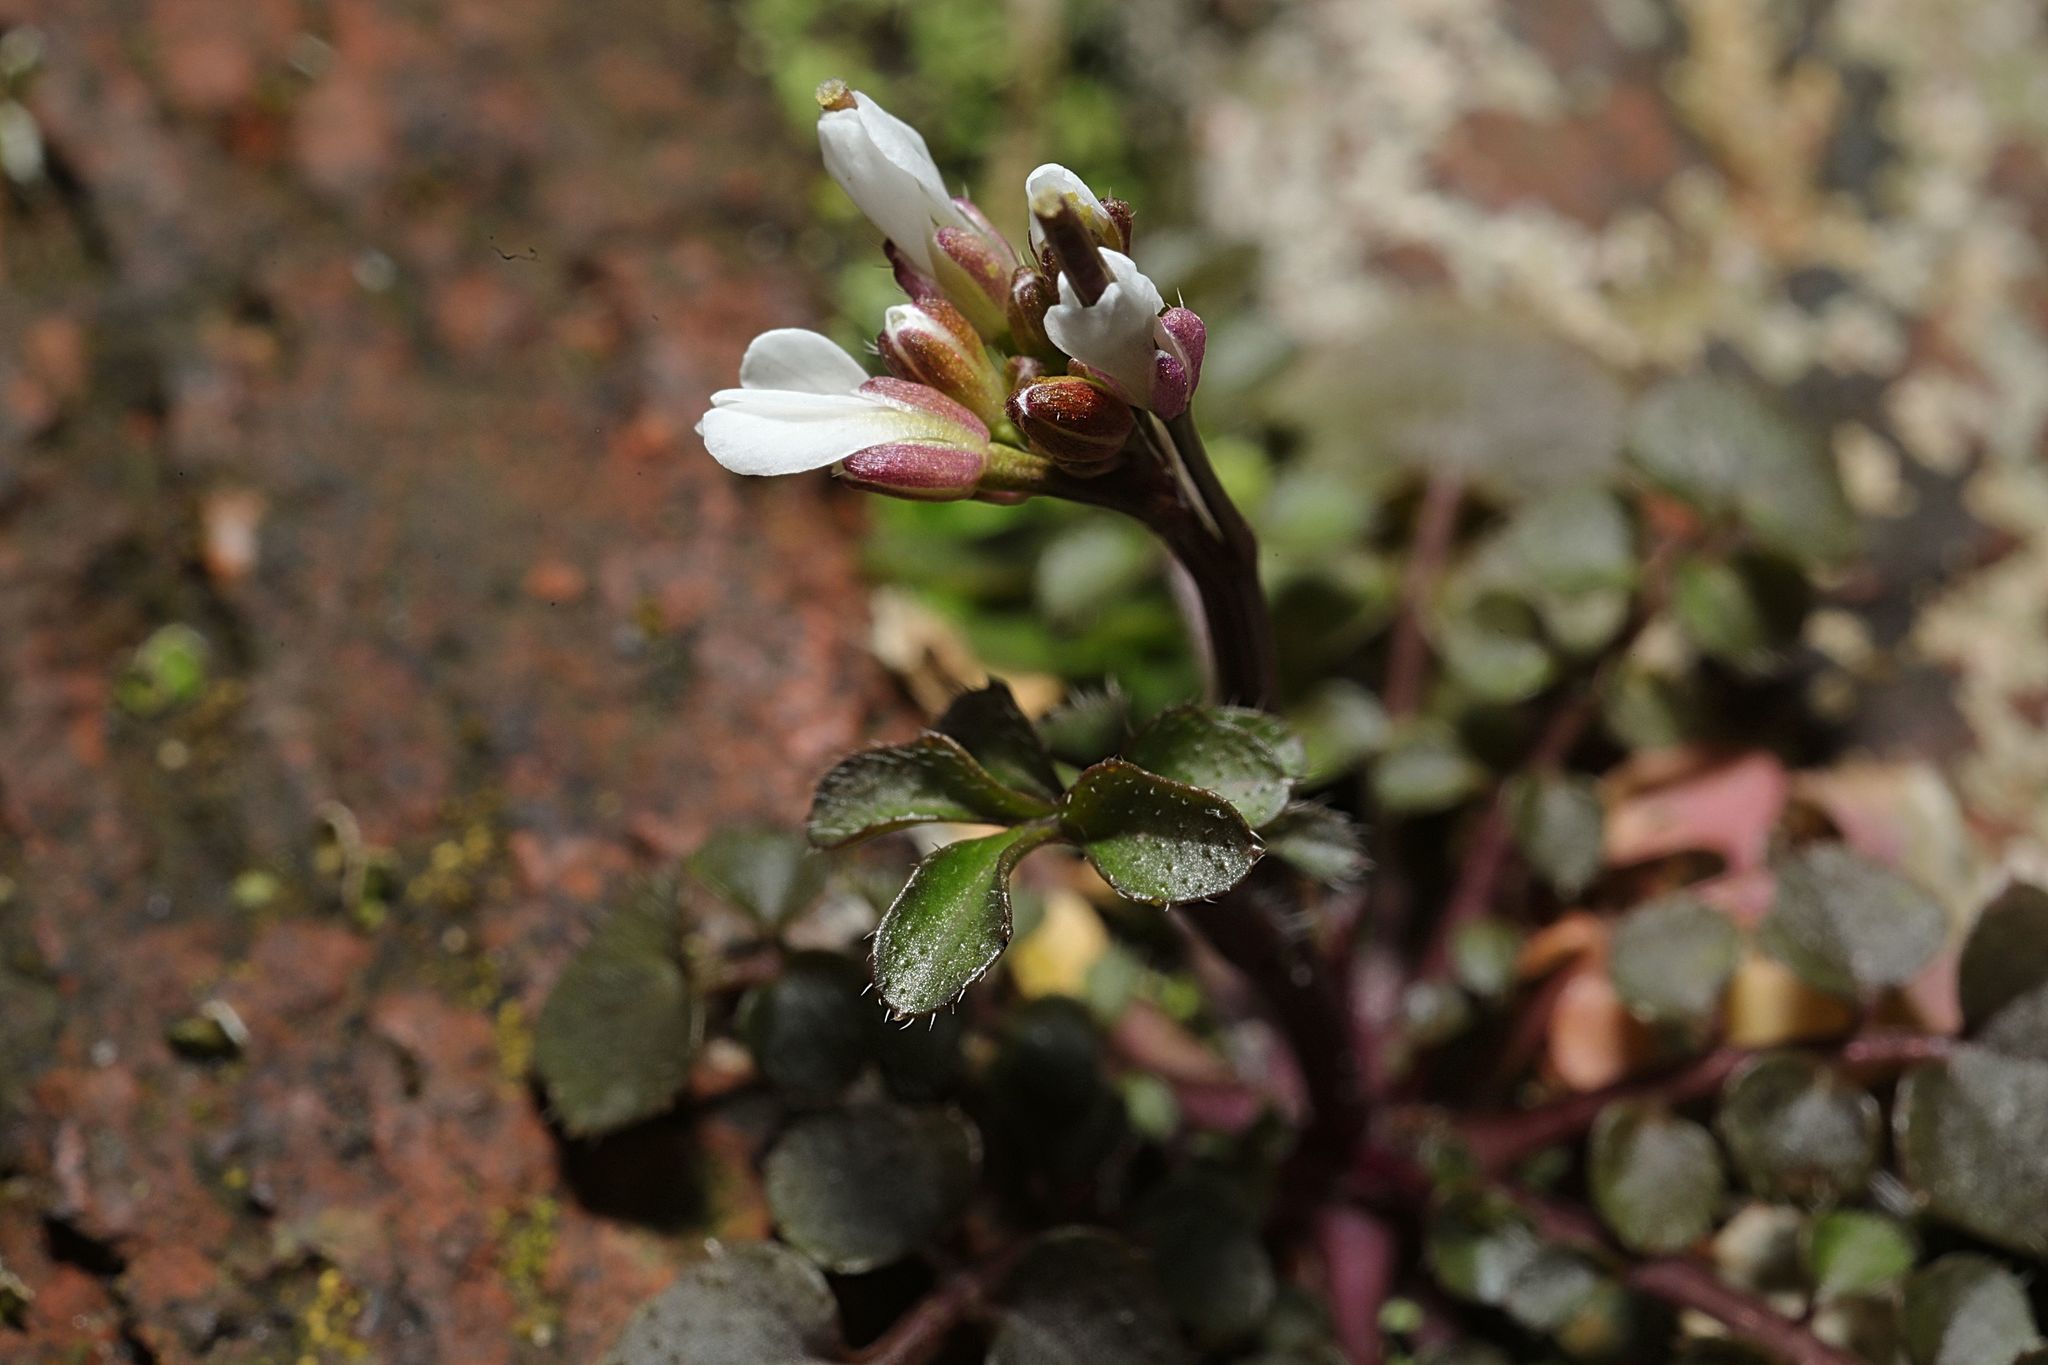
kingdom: Plantae
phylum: Tracheophyta
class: Magnoliopsida
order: Brassicales
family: Brassicaceae
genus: Cardamine
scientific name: Cardamine hirsuta
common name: Hairy bittercress
